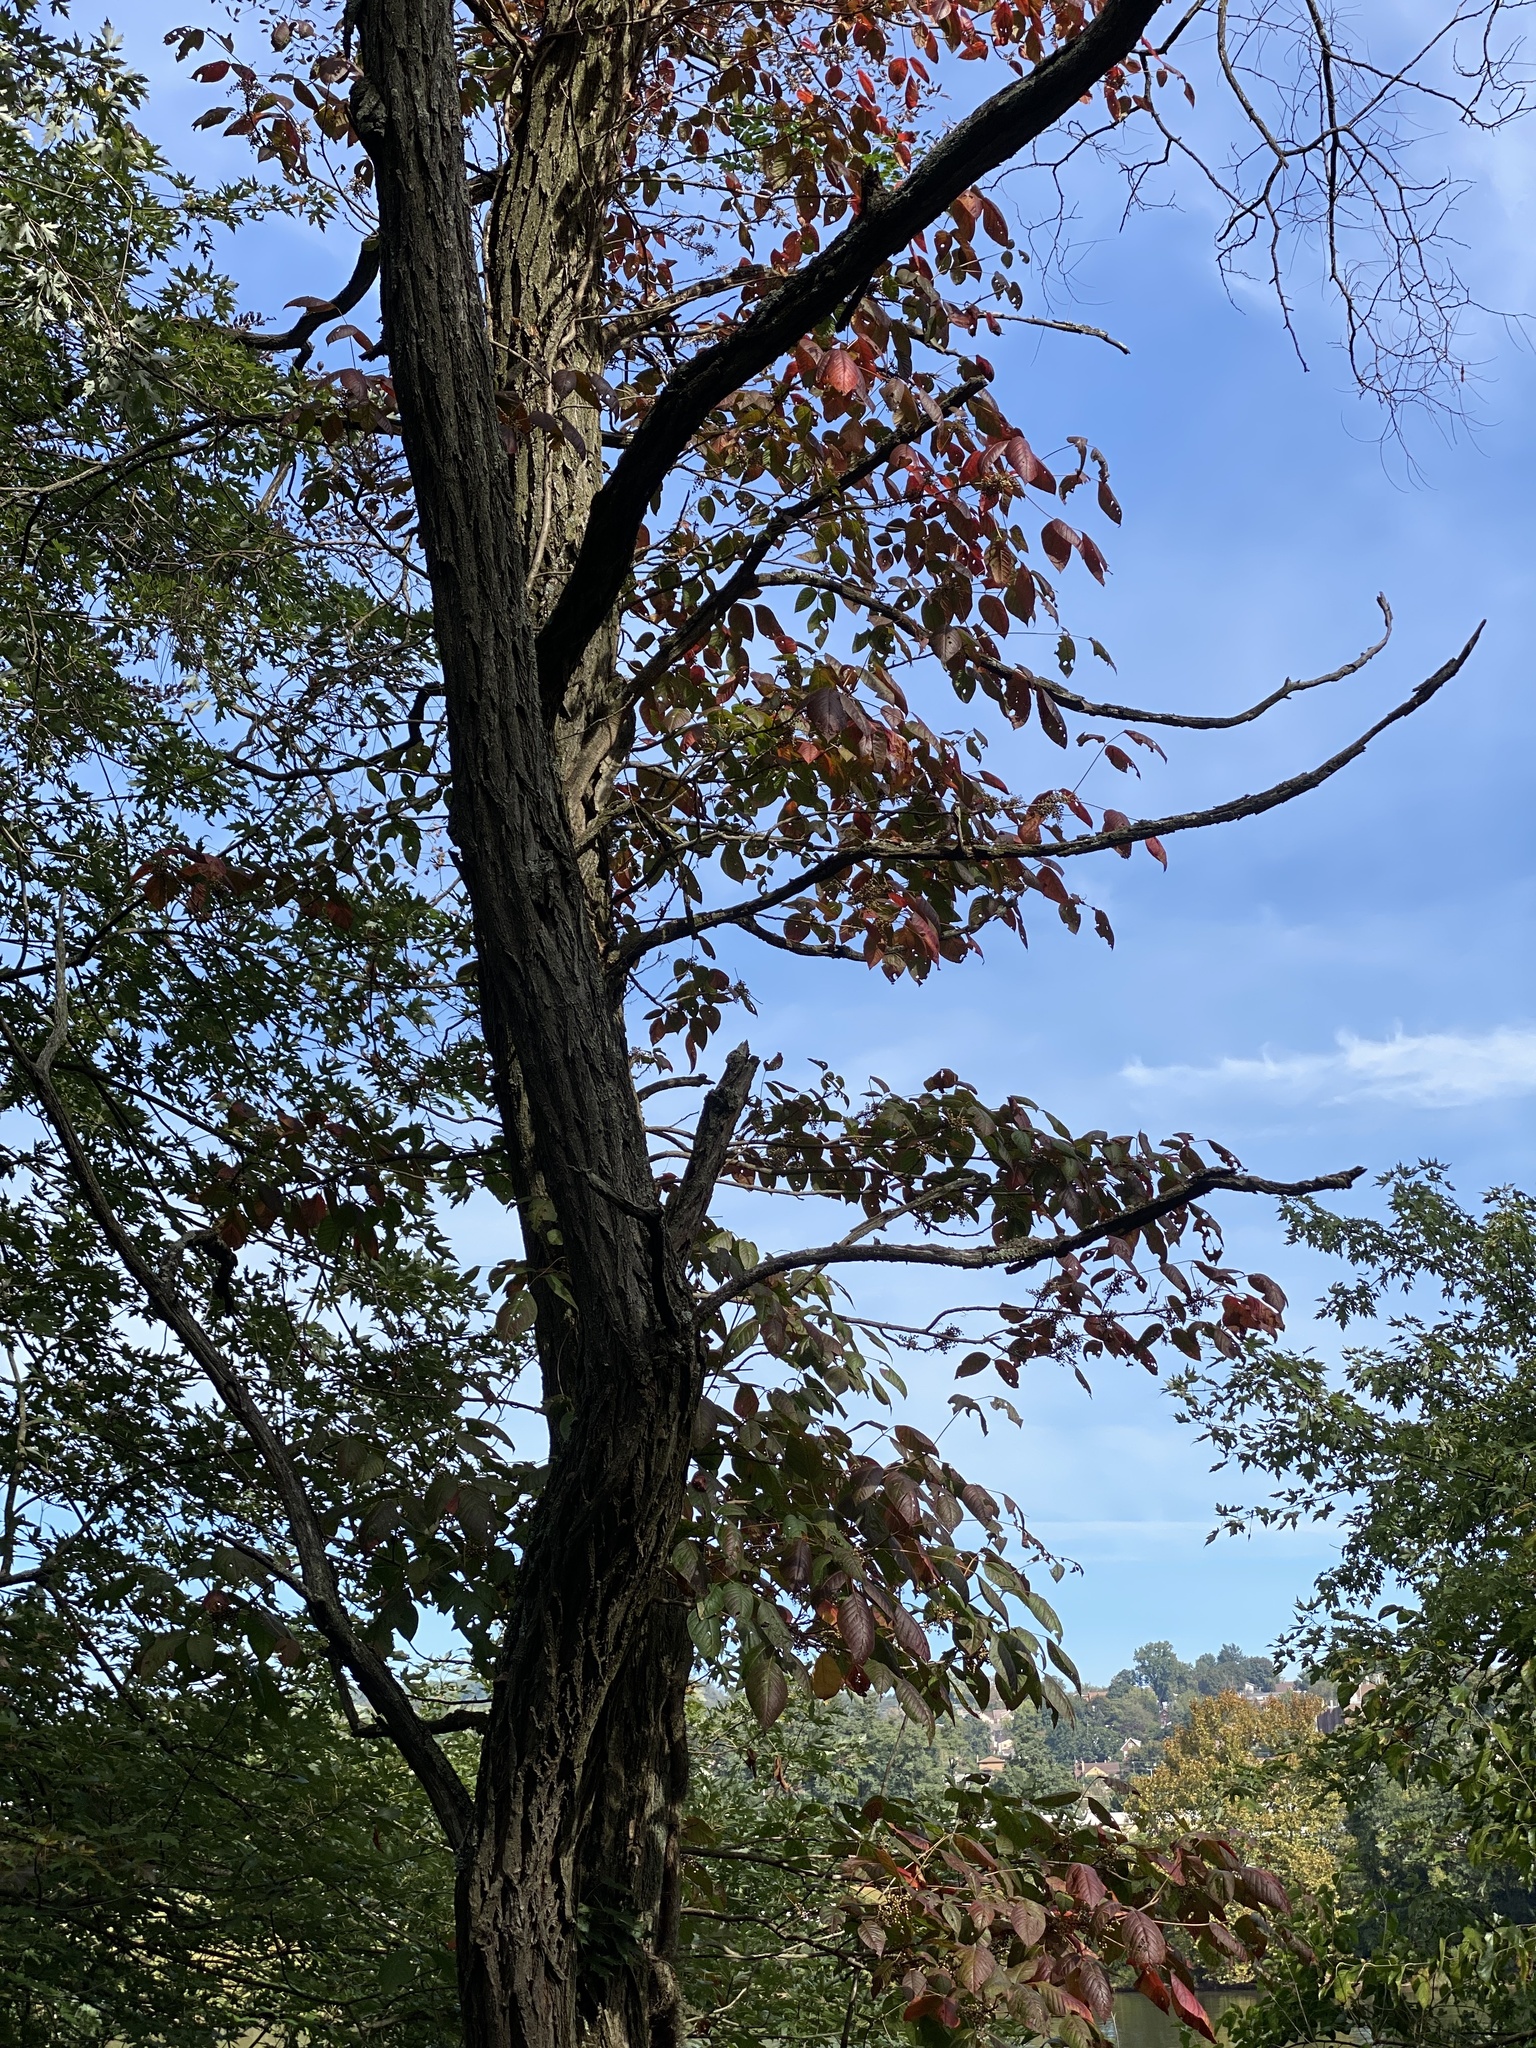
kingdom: Plantae
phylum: Tracheophyta
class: Magnoliopsida
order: Sapindales
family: Anacardiaceae
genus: Toxicodendron
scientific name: Toxicodendron radicans
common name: Poison ivy
